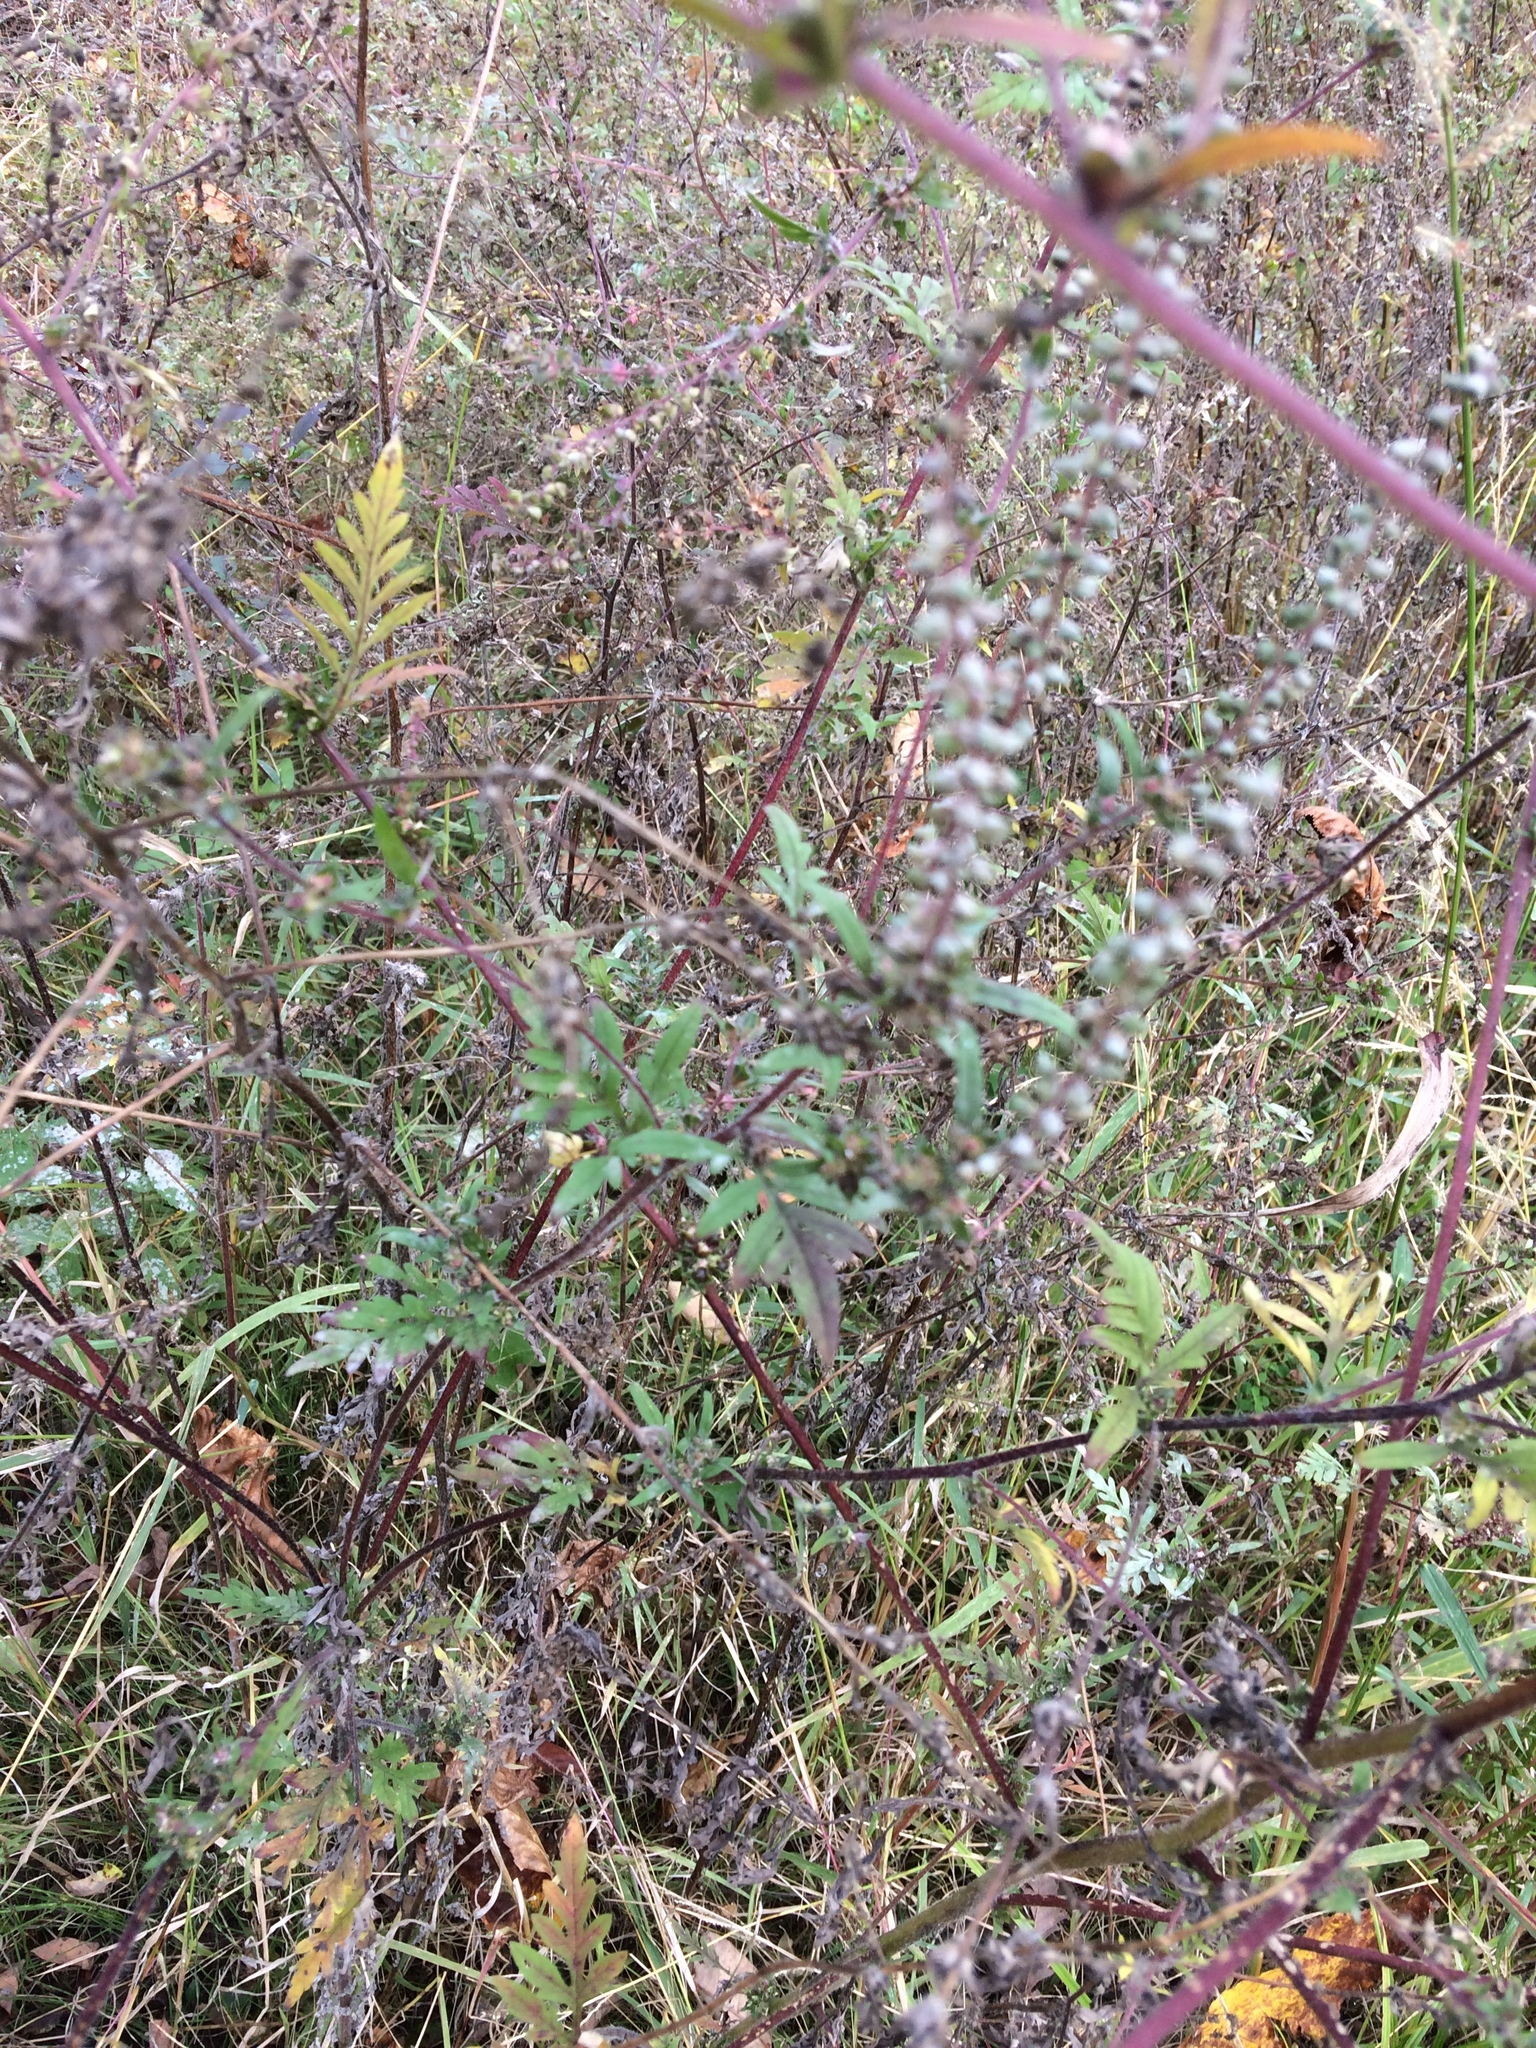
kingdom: Plantae
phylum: Tracheophyta
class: Magnoliopsida
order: Asterales
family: Asteraceae
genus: Ambrosia
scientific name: Ambrosia artemisiifolia
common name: Annual ragweed
